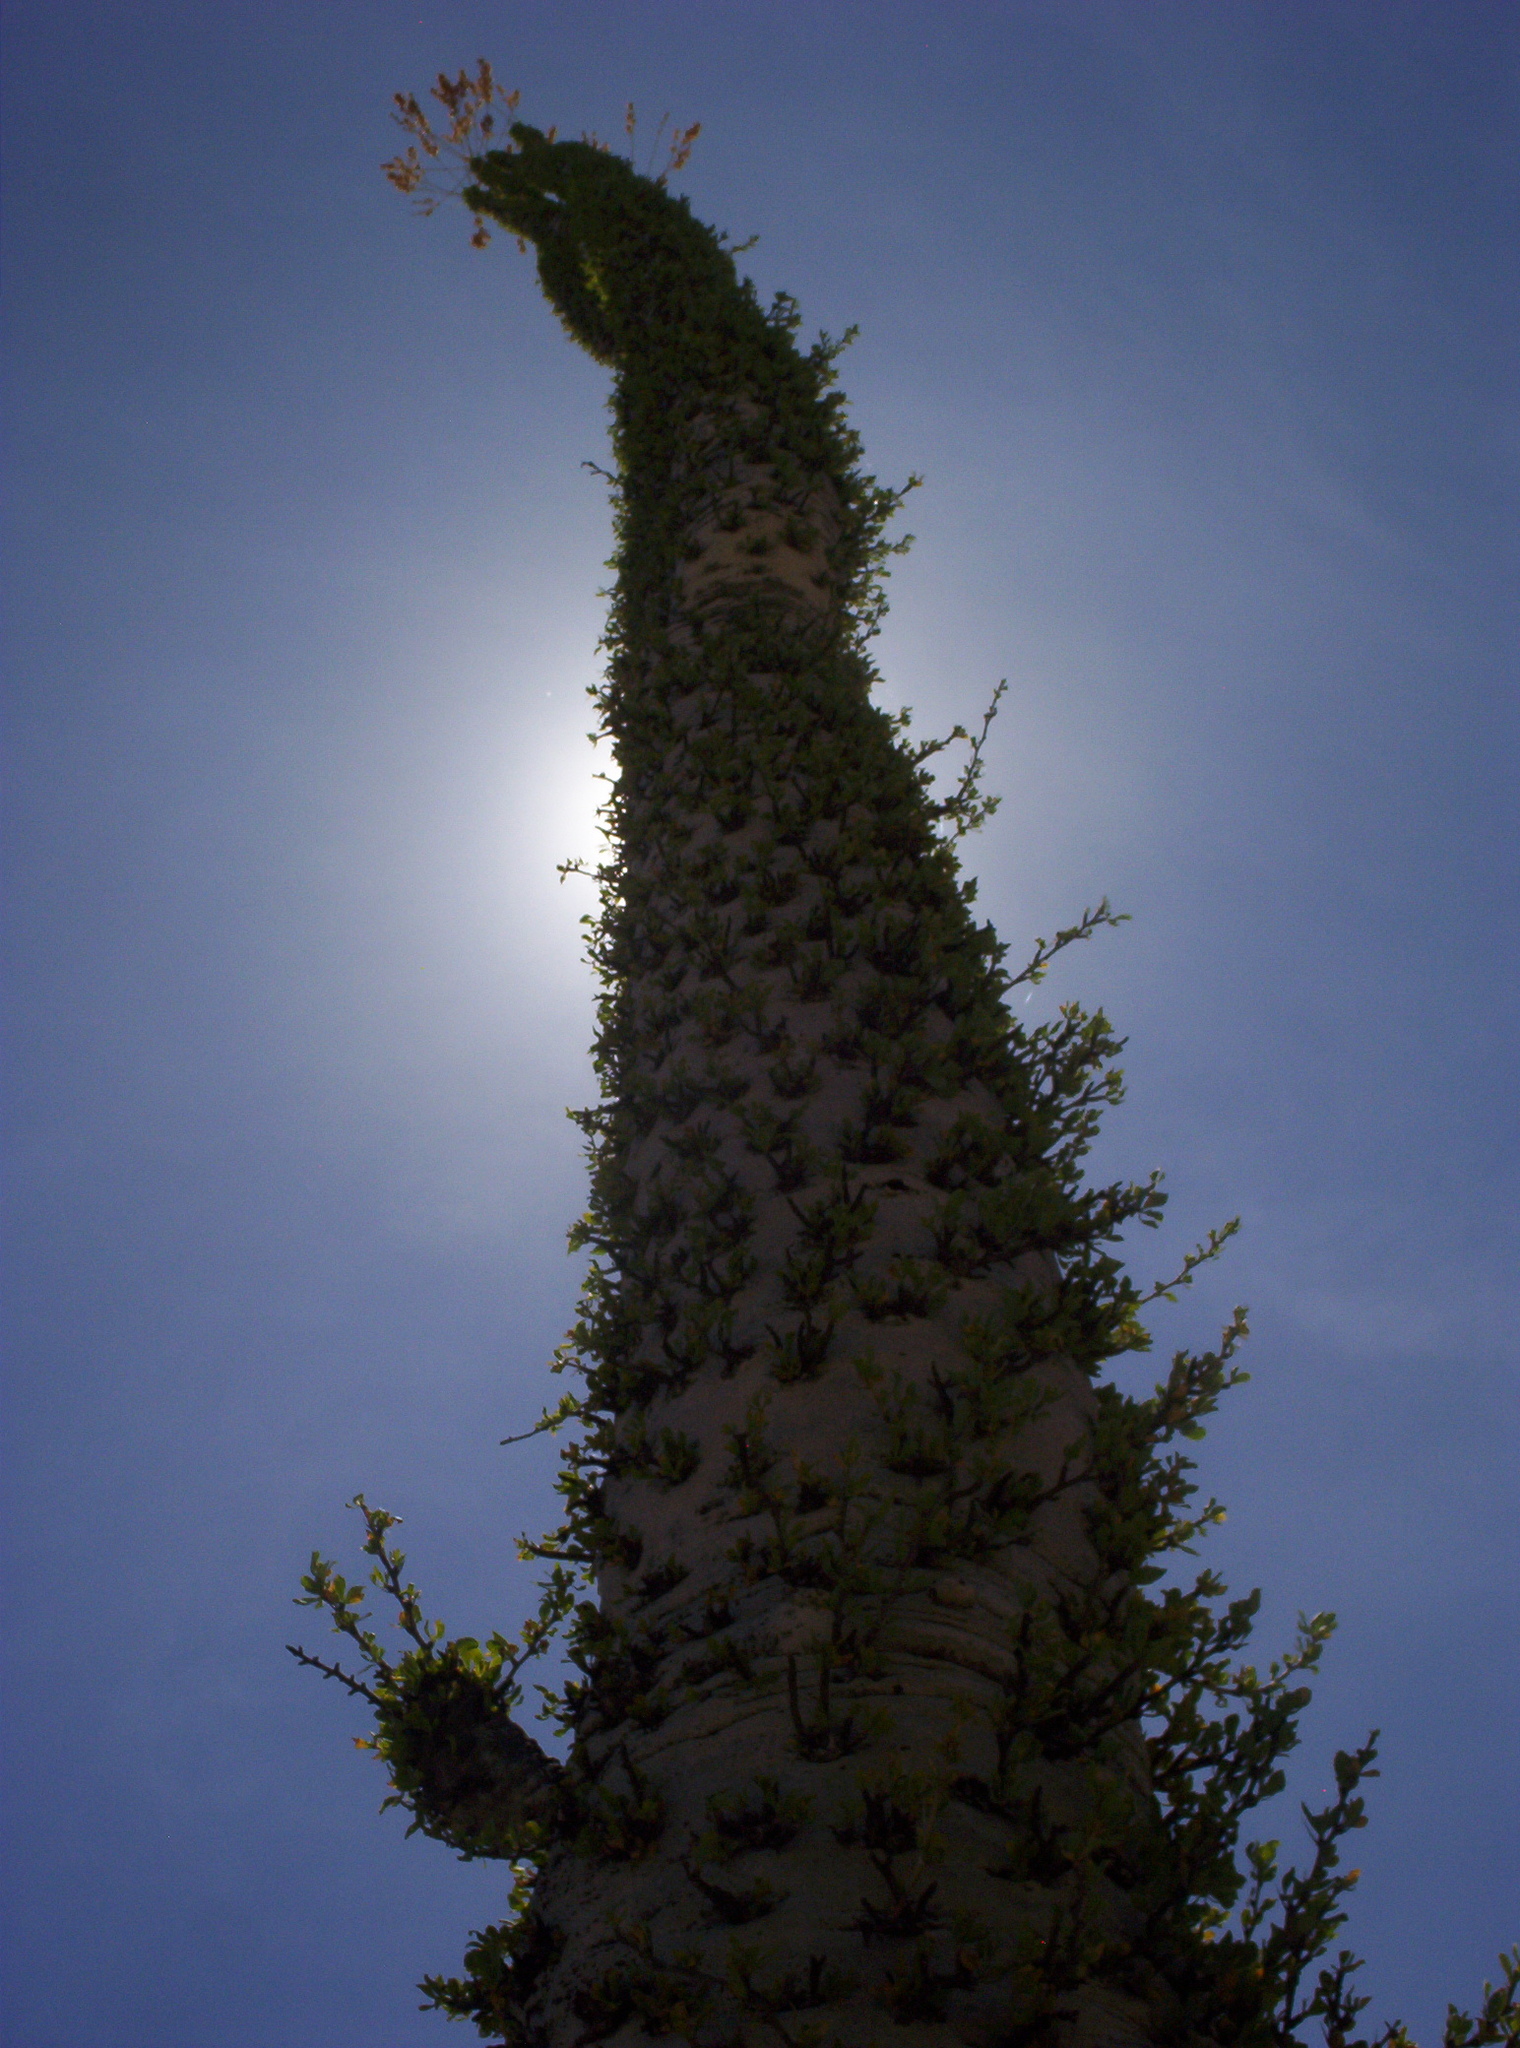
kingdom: Plantae
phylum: Tracheophyta
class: Magnoliopsida
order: Ericales
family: Fouquieriaceae
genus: Fouquieria
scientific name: Fouquieria columnaris
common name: Boojumtree
